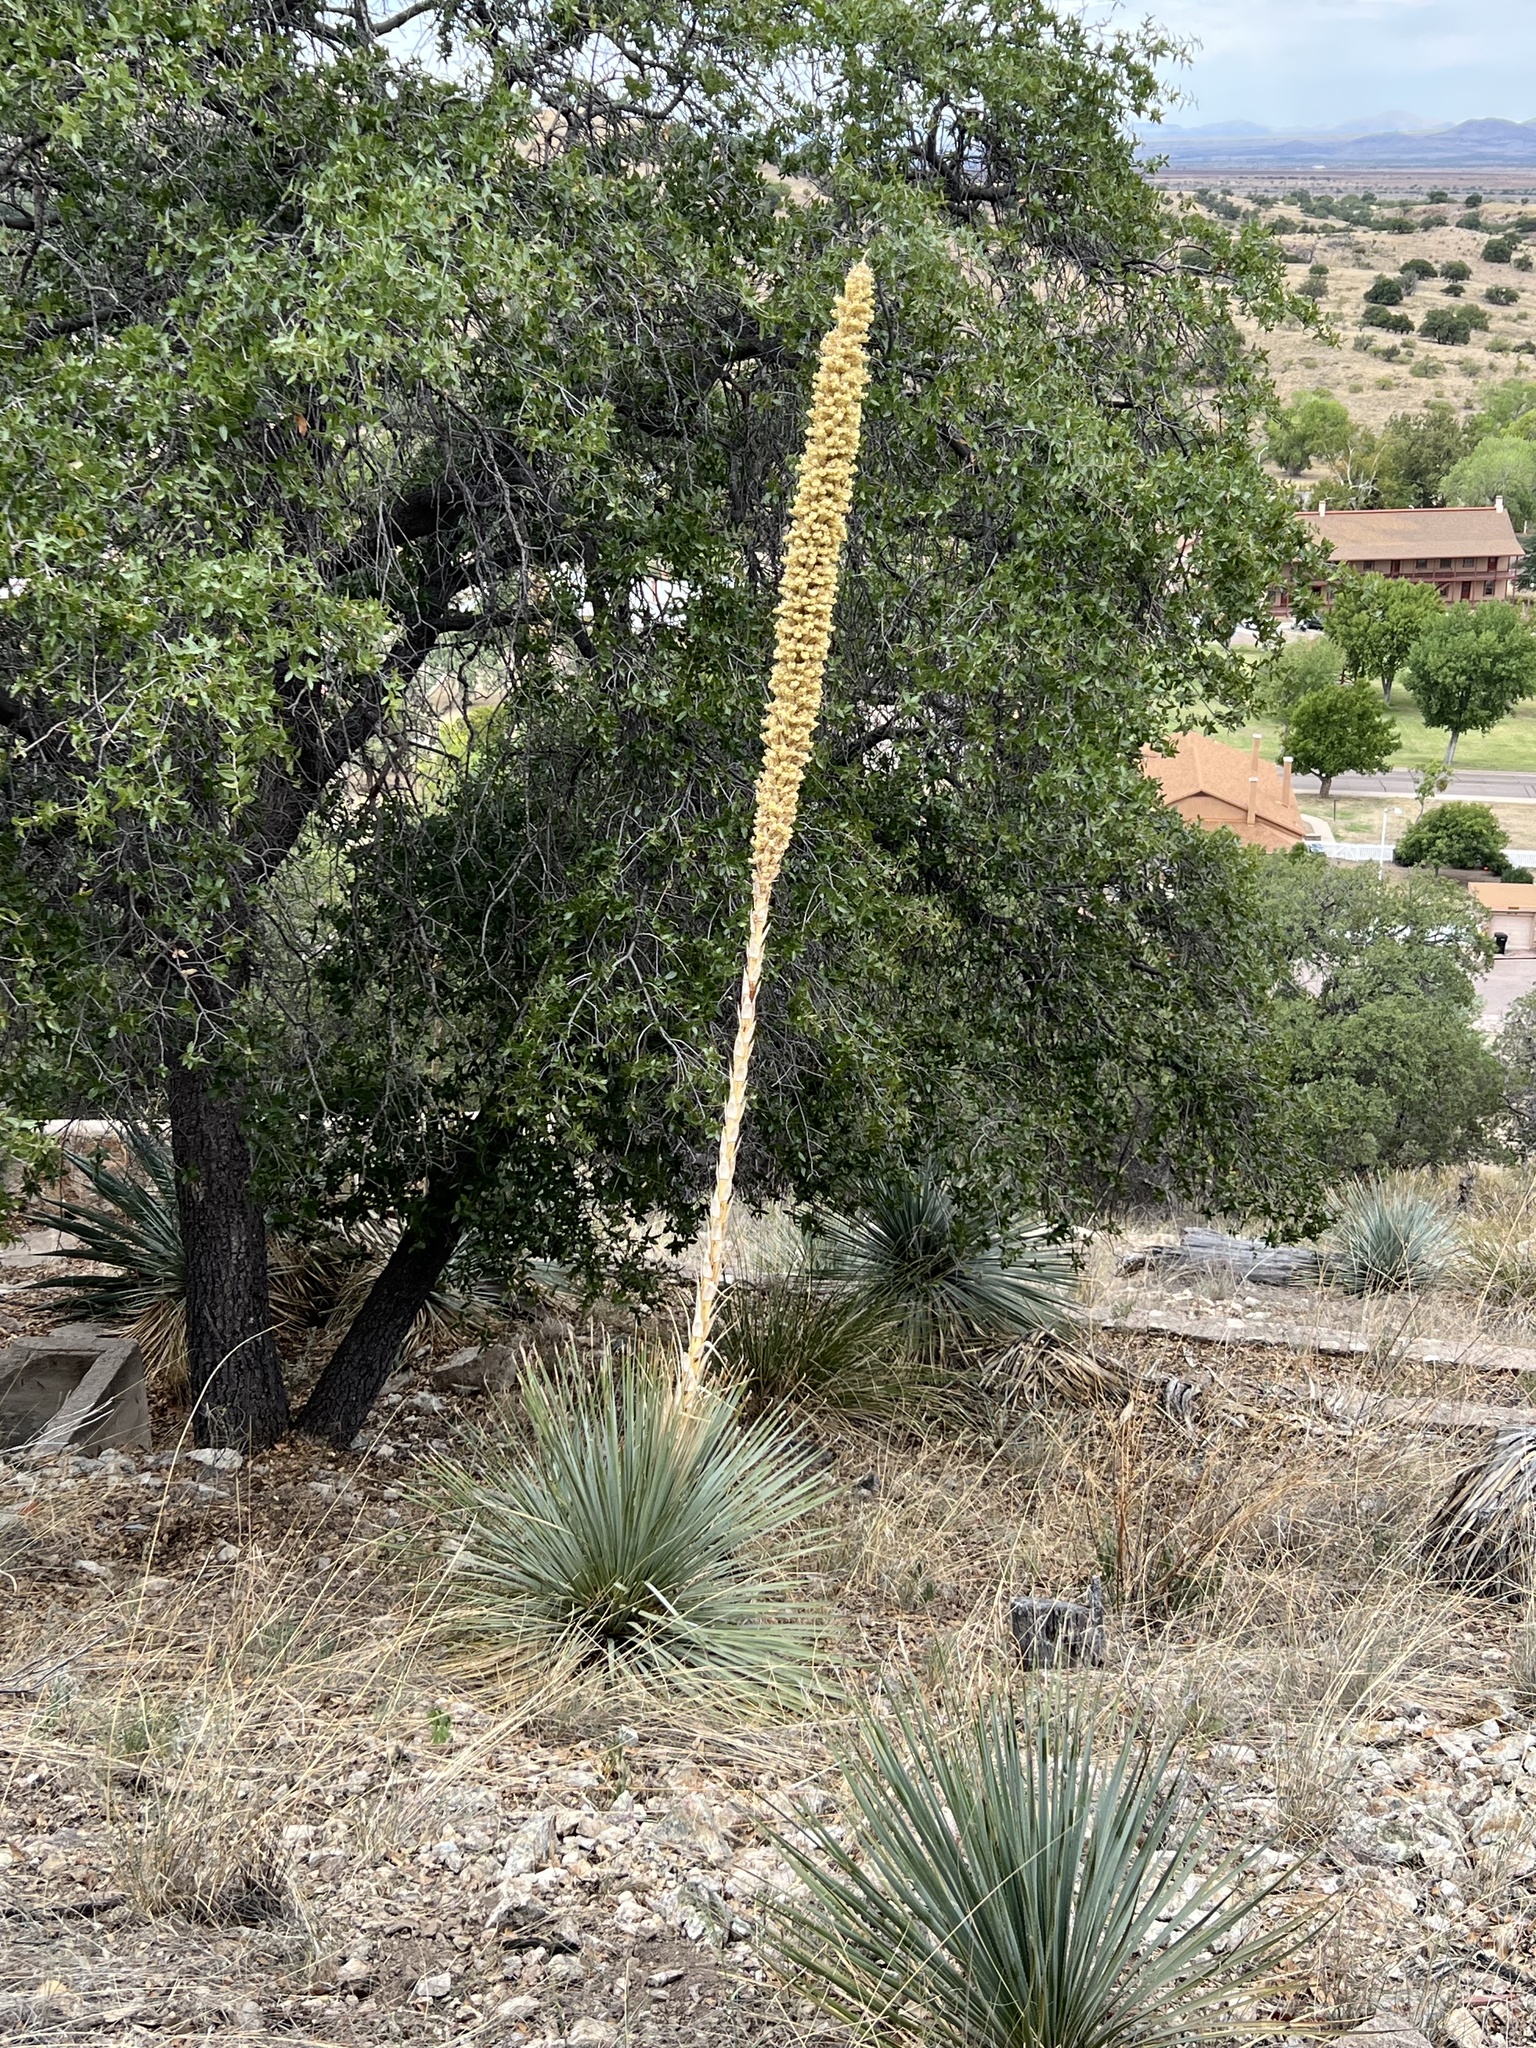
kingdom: Plantae
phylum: Tracheophyta
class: Liliopsida
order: Asparagales
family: Asparagaceae
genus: Dasylirion
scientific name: Dasylirion wheeleri
